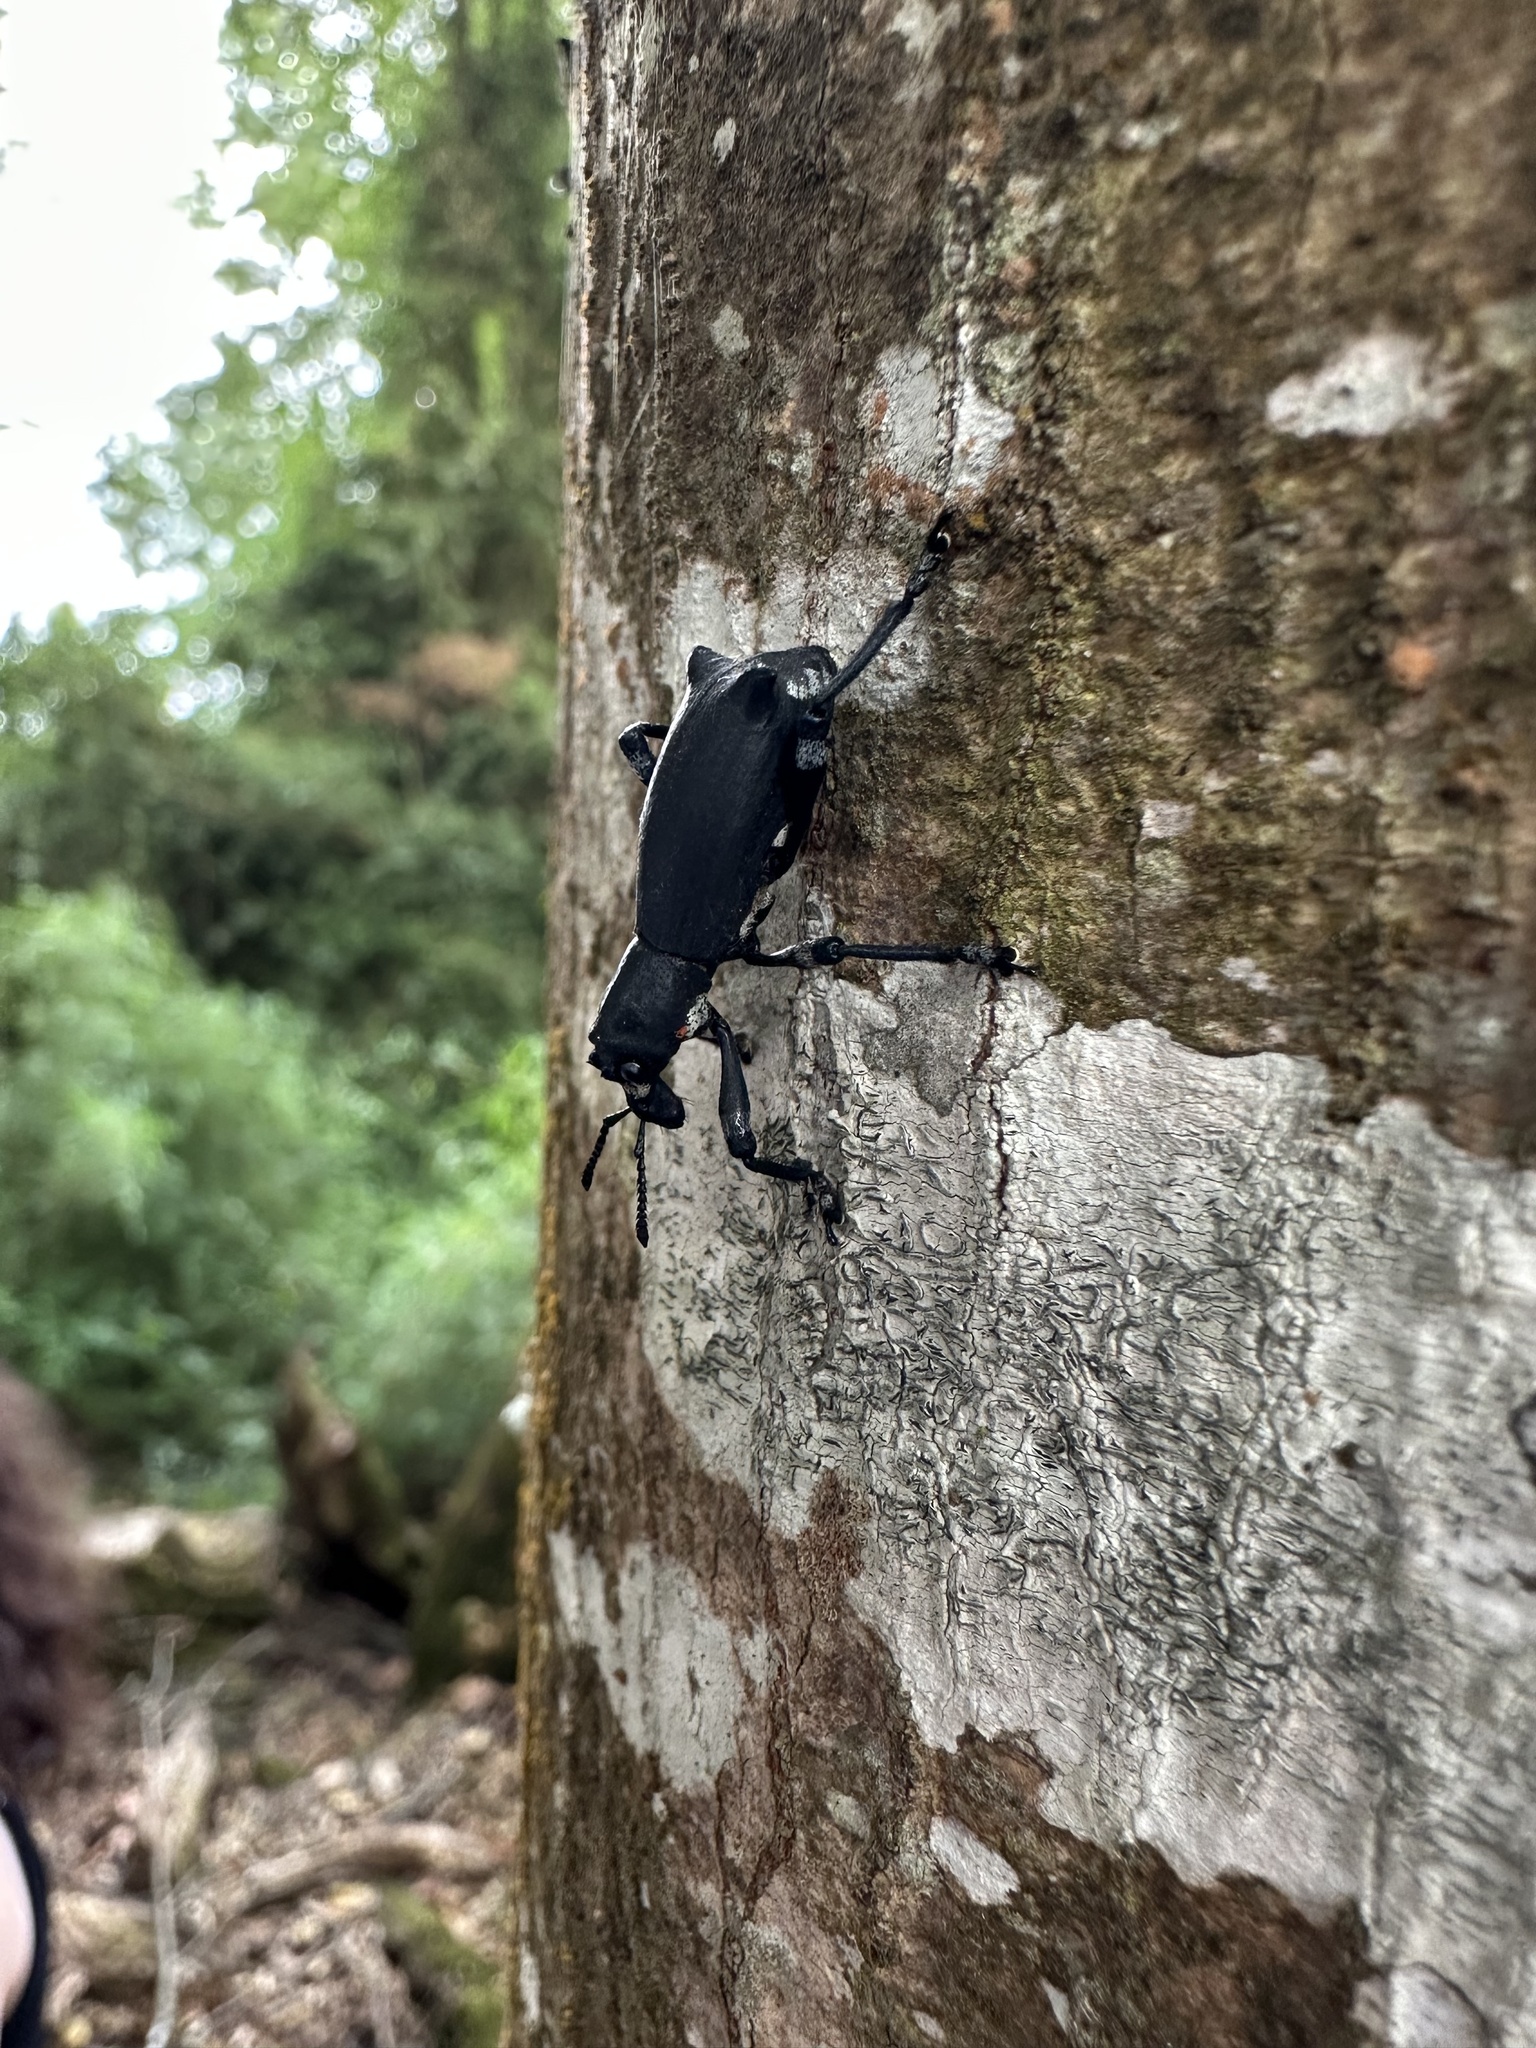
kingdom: Animalia
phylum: Arthropoda
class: Insecta
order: Coleoptera
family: Curculionidae
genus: Aegorhinus
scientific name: Aegorhinus
